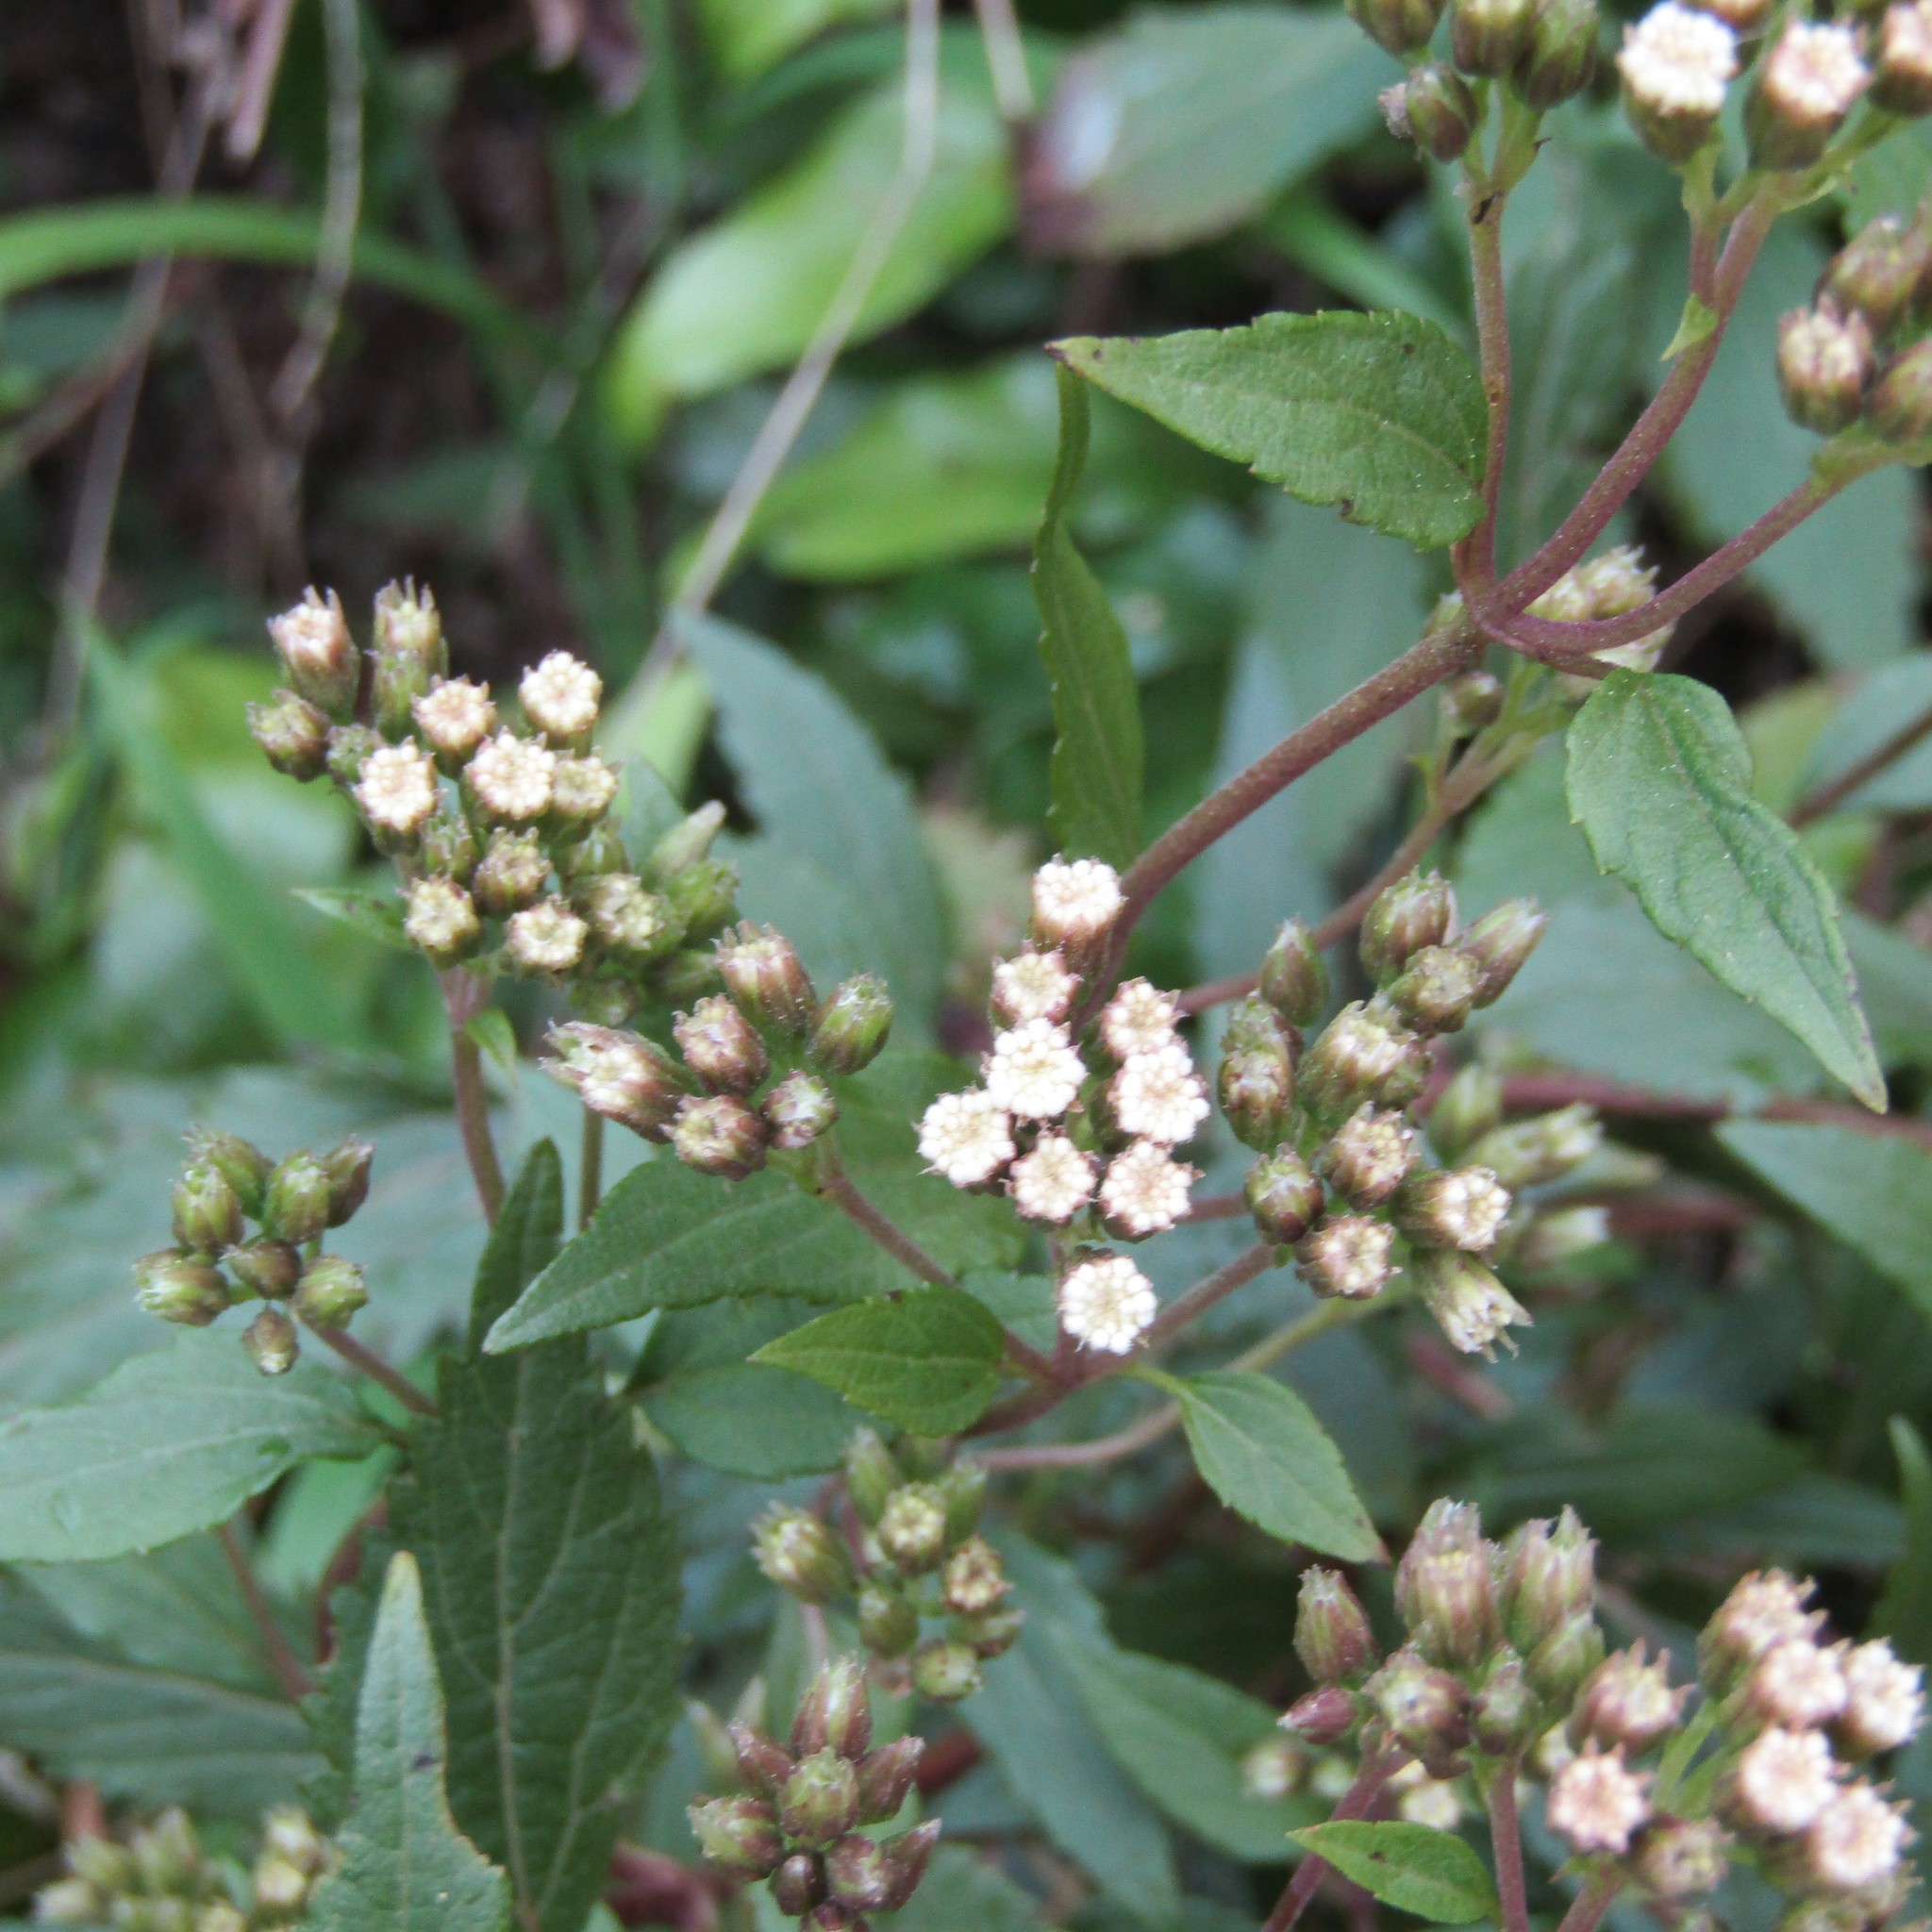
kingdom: Plantae
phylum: Tracheophyta
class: Magnoliopsida
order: Asterales
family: Asteraceae
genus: Ageratina
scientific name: Ageratina riparia
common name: Creeping croftonweed
